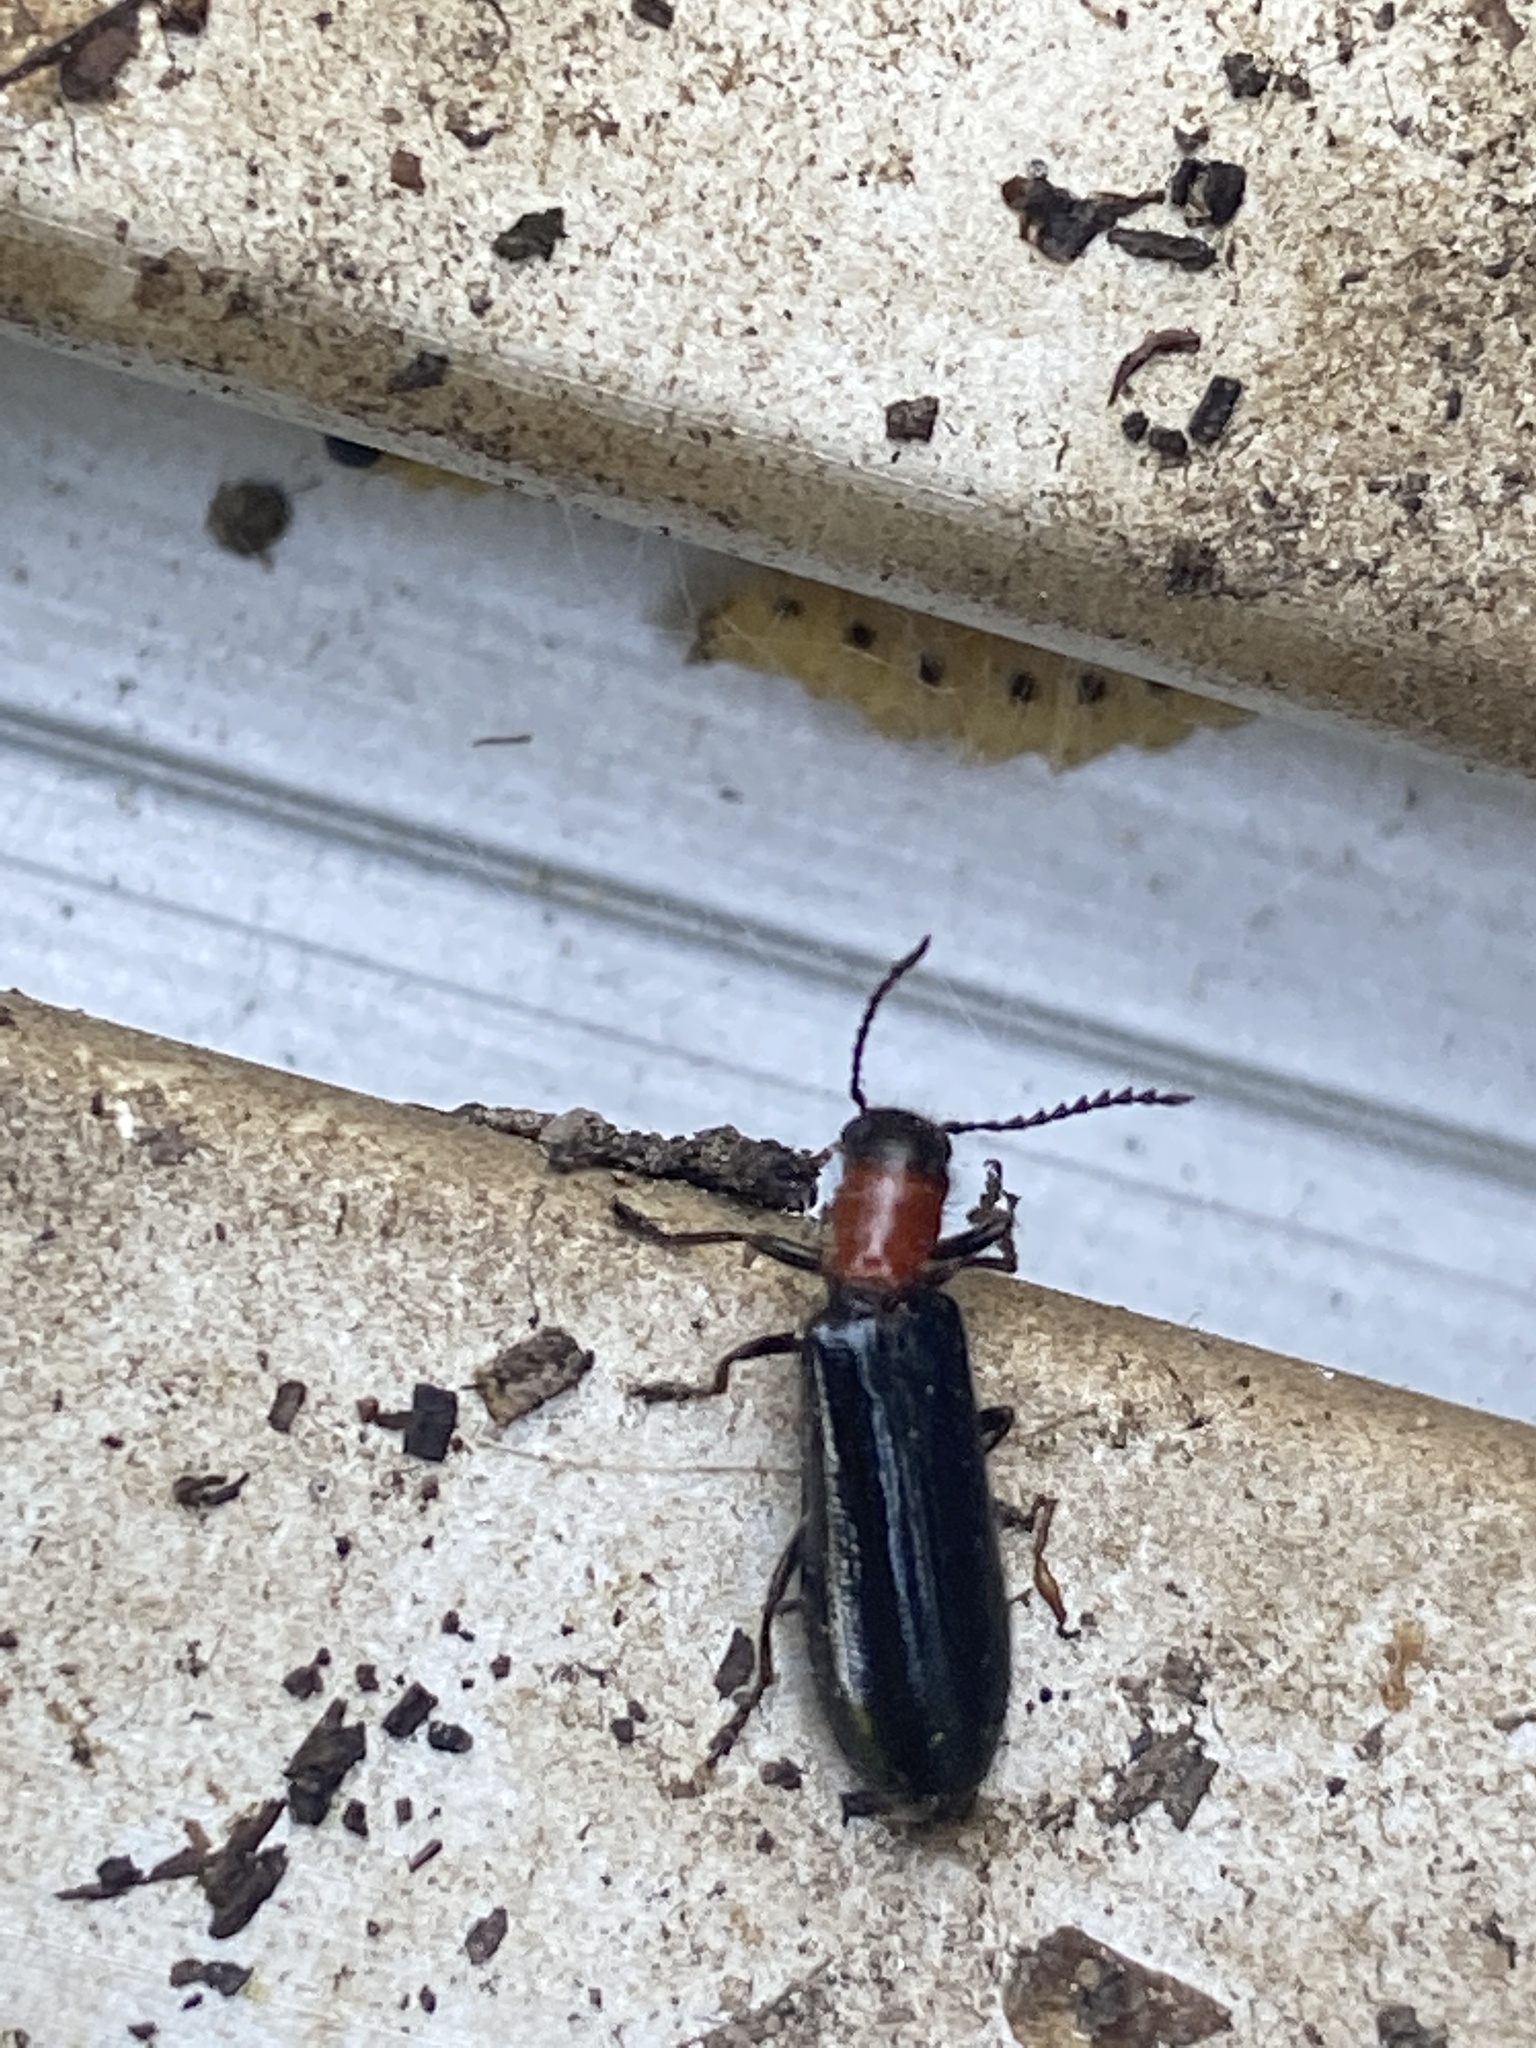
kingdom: Animalia
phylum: Arthropoda
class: Insecta
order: Coleoptera
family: Cleridae
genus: Tillus
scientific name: Tillus elongatus
